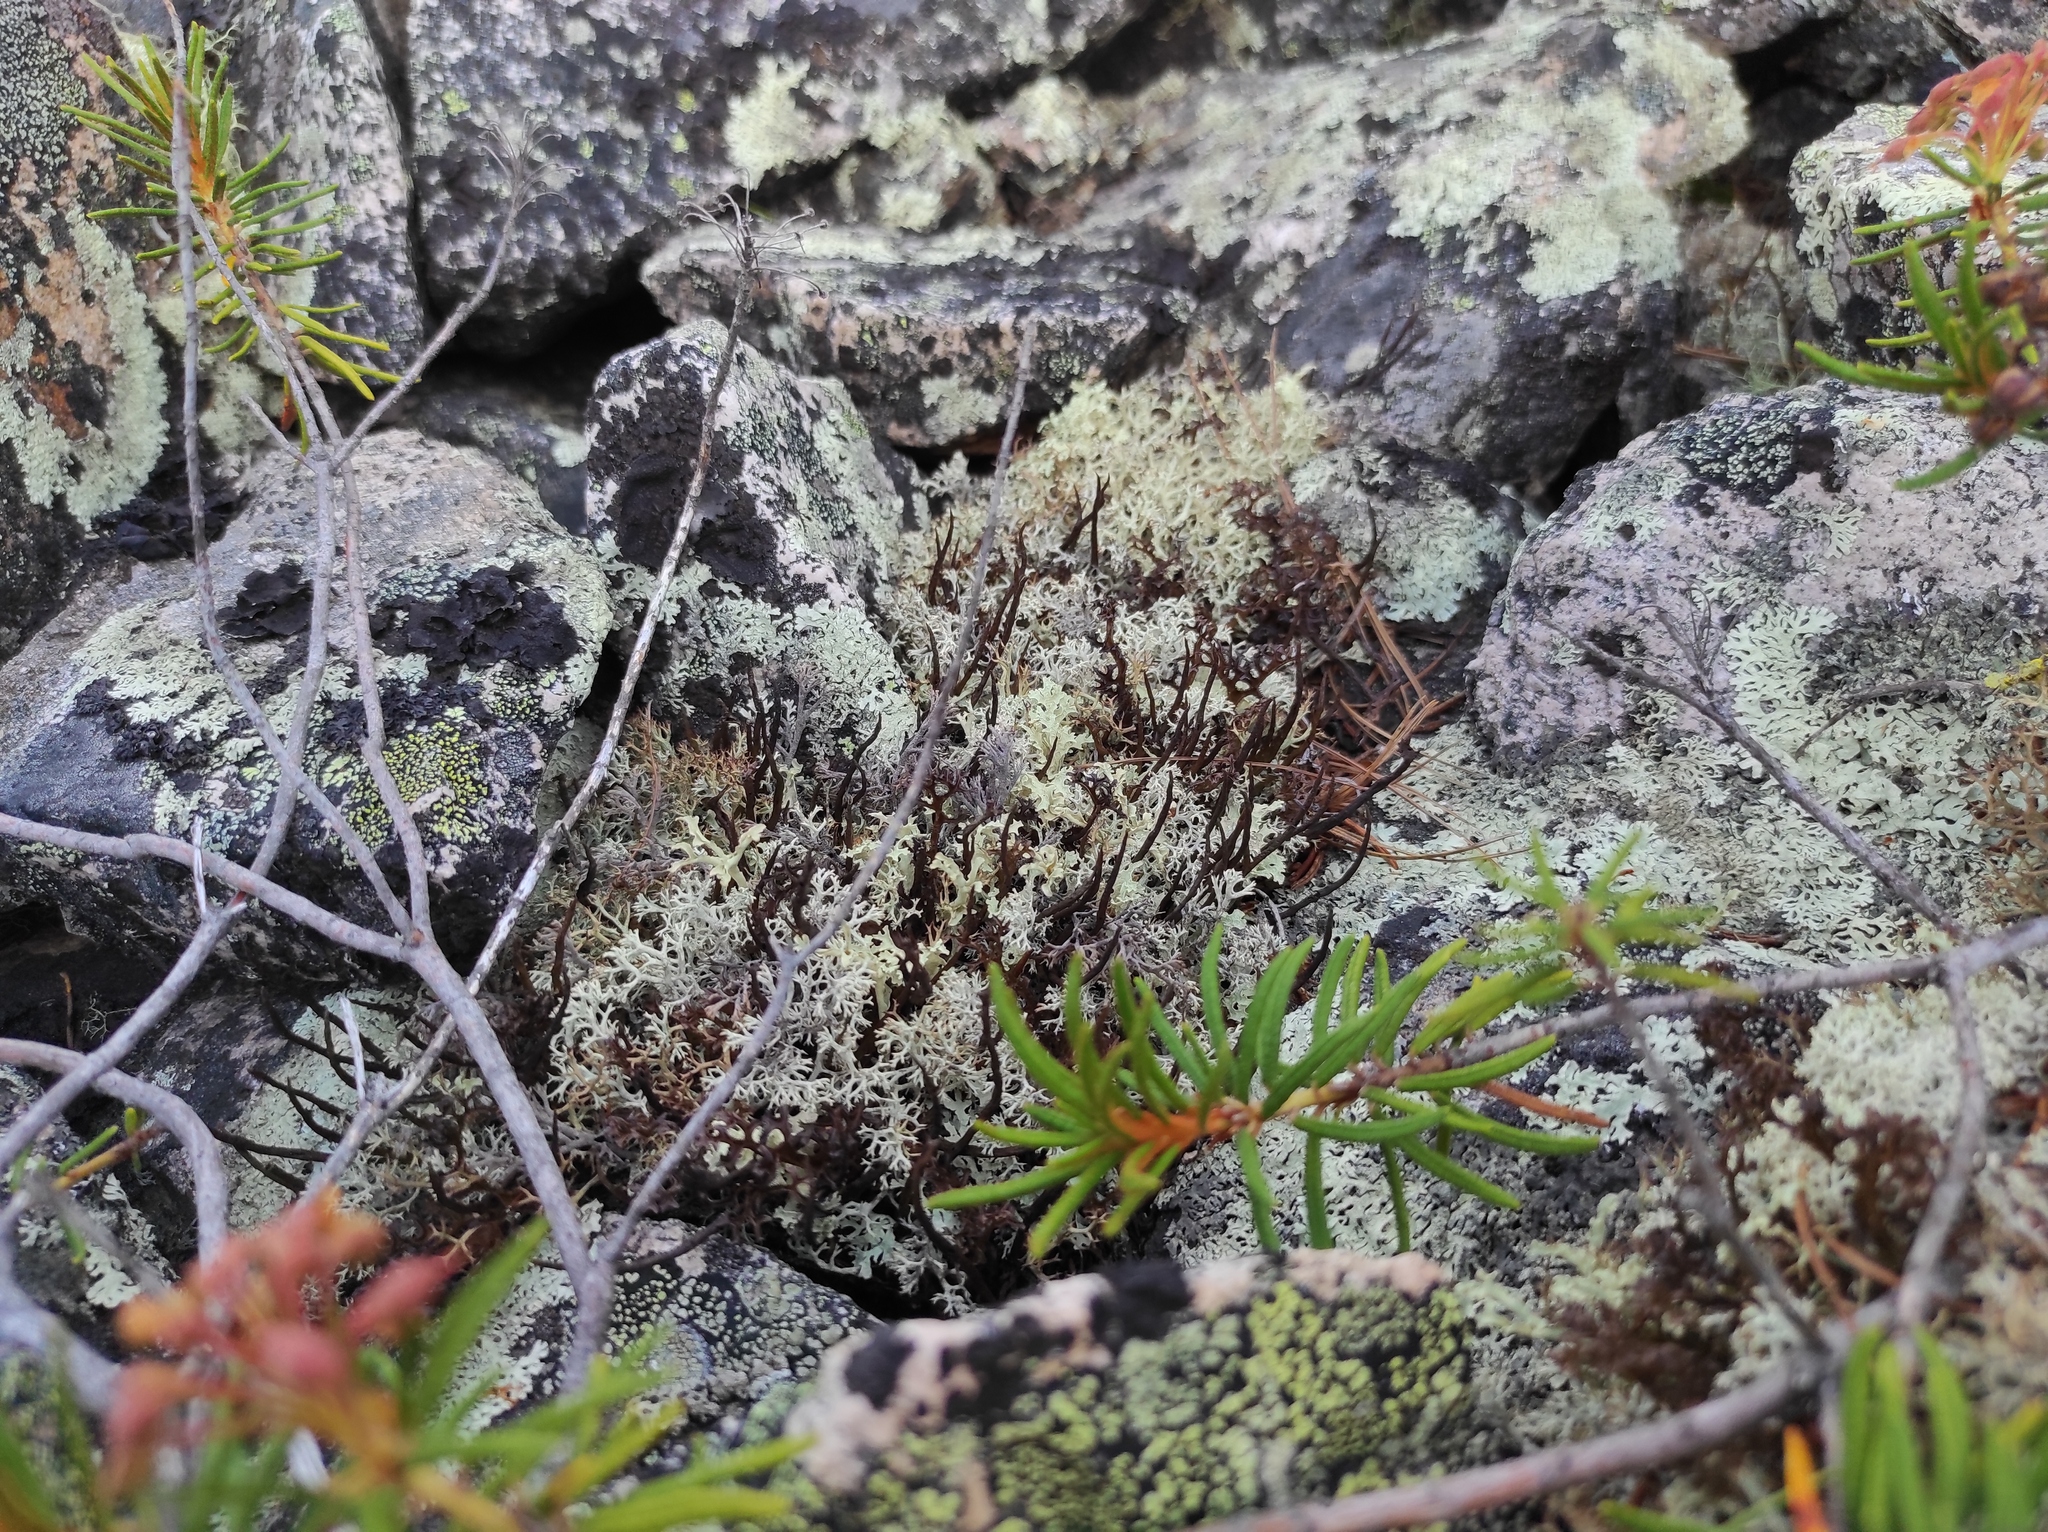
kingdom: Plantae
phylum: Tracheophyta
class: Magnoliopsida
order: Ericales
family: Ericaceae
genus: Rhododendron
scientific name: Rhododendron tomentosum
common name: Marsh labrador tea
